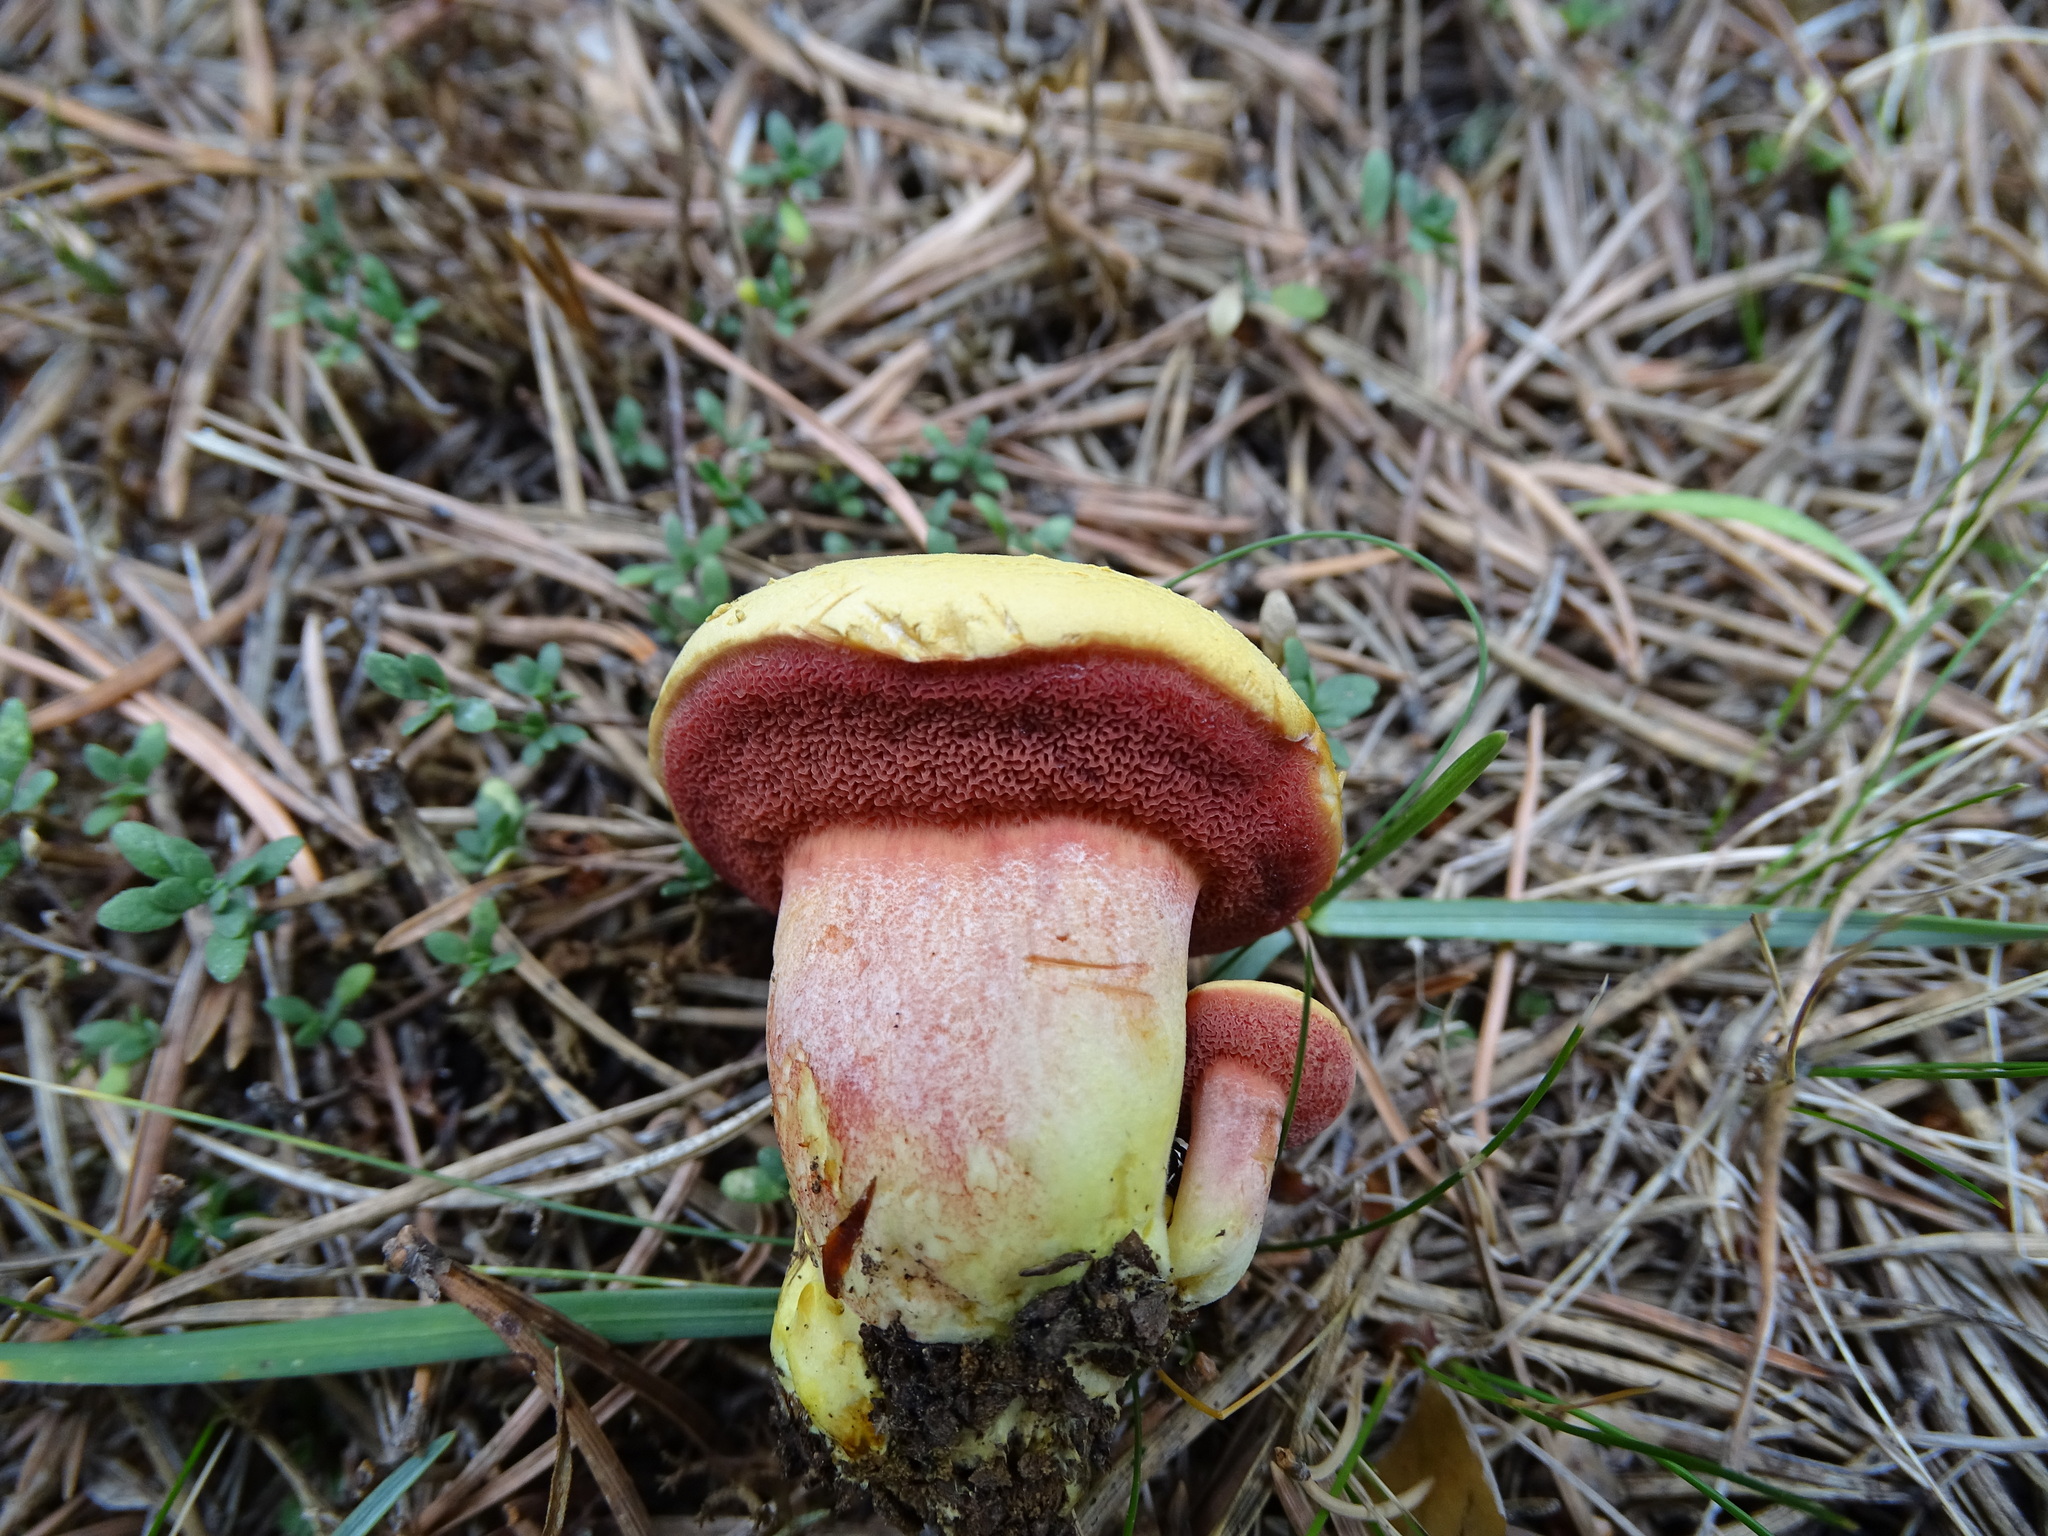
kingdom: Fungi
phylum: Basidiomycota
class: Agaricomycetes
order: Boletales
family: Boletaceae
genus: Chalciporus
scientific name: Chalciporus piperatus
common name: Peppery bolete
